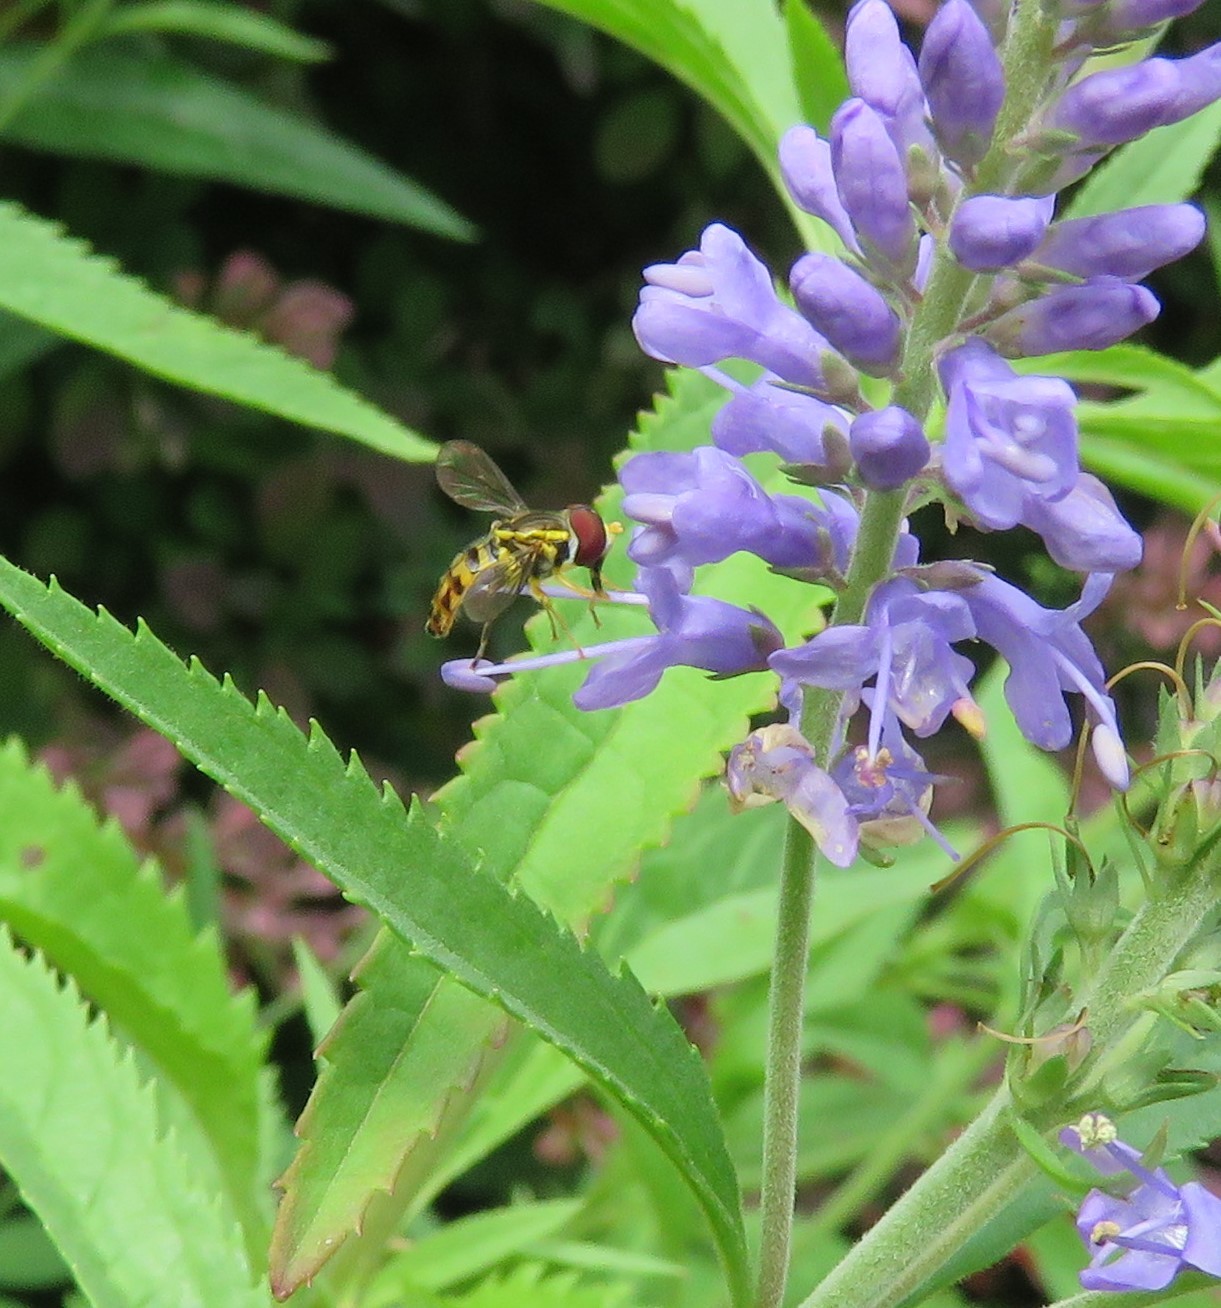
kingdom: Animalia
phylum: Arthropoda
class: Insecta
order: Diptera
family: Syrphidae
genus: Toxomerus
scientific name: Toxomerus geminatus
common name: Eastern calligrapher
